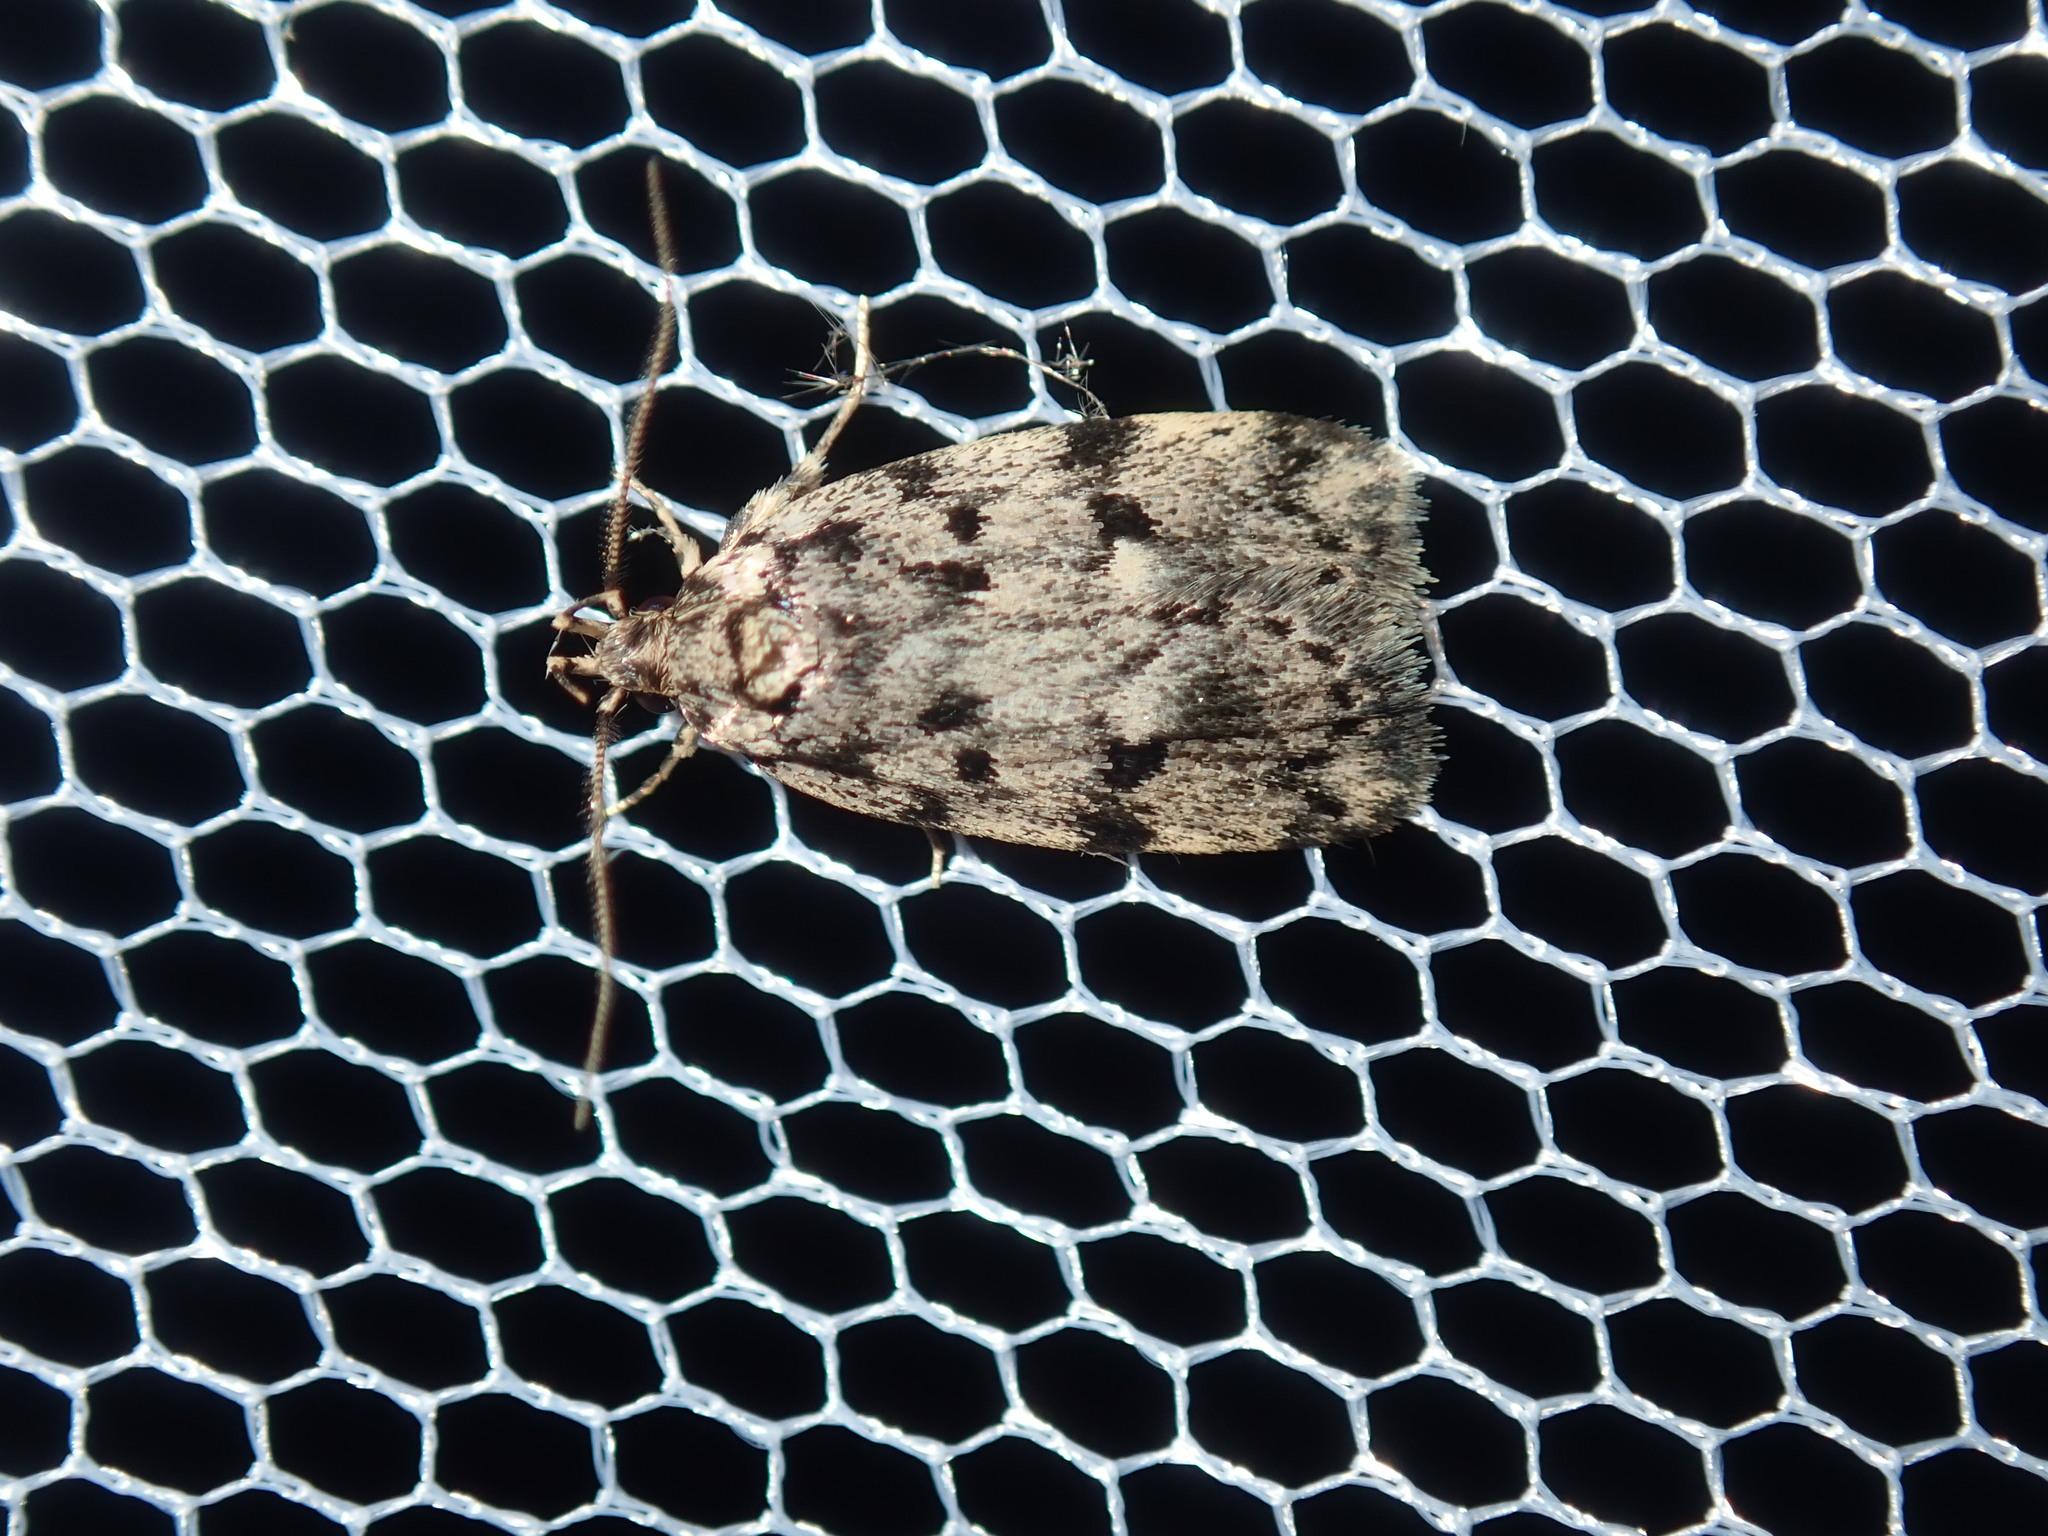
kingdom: Animalia
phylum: Arthropoda
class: Insecta
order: Lepidoptera
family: Oecophoridae
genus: Barea
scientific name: Barea subviridella
